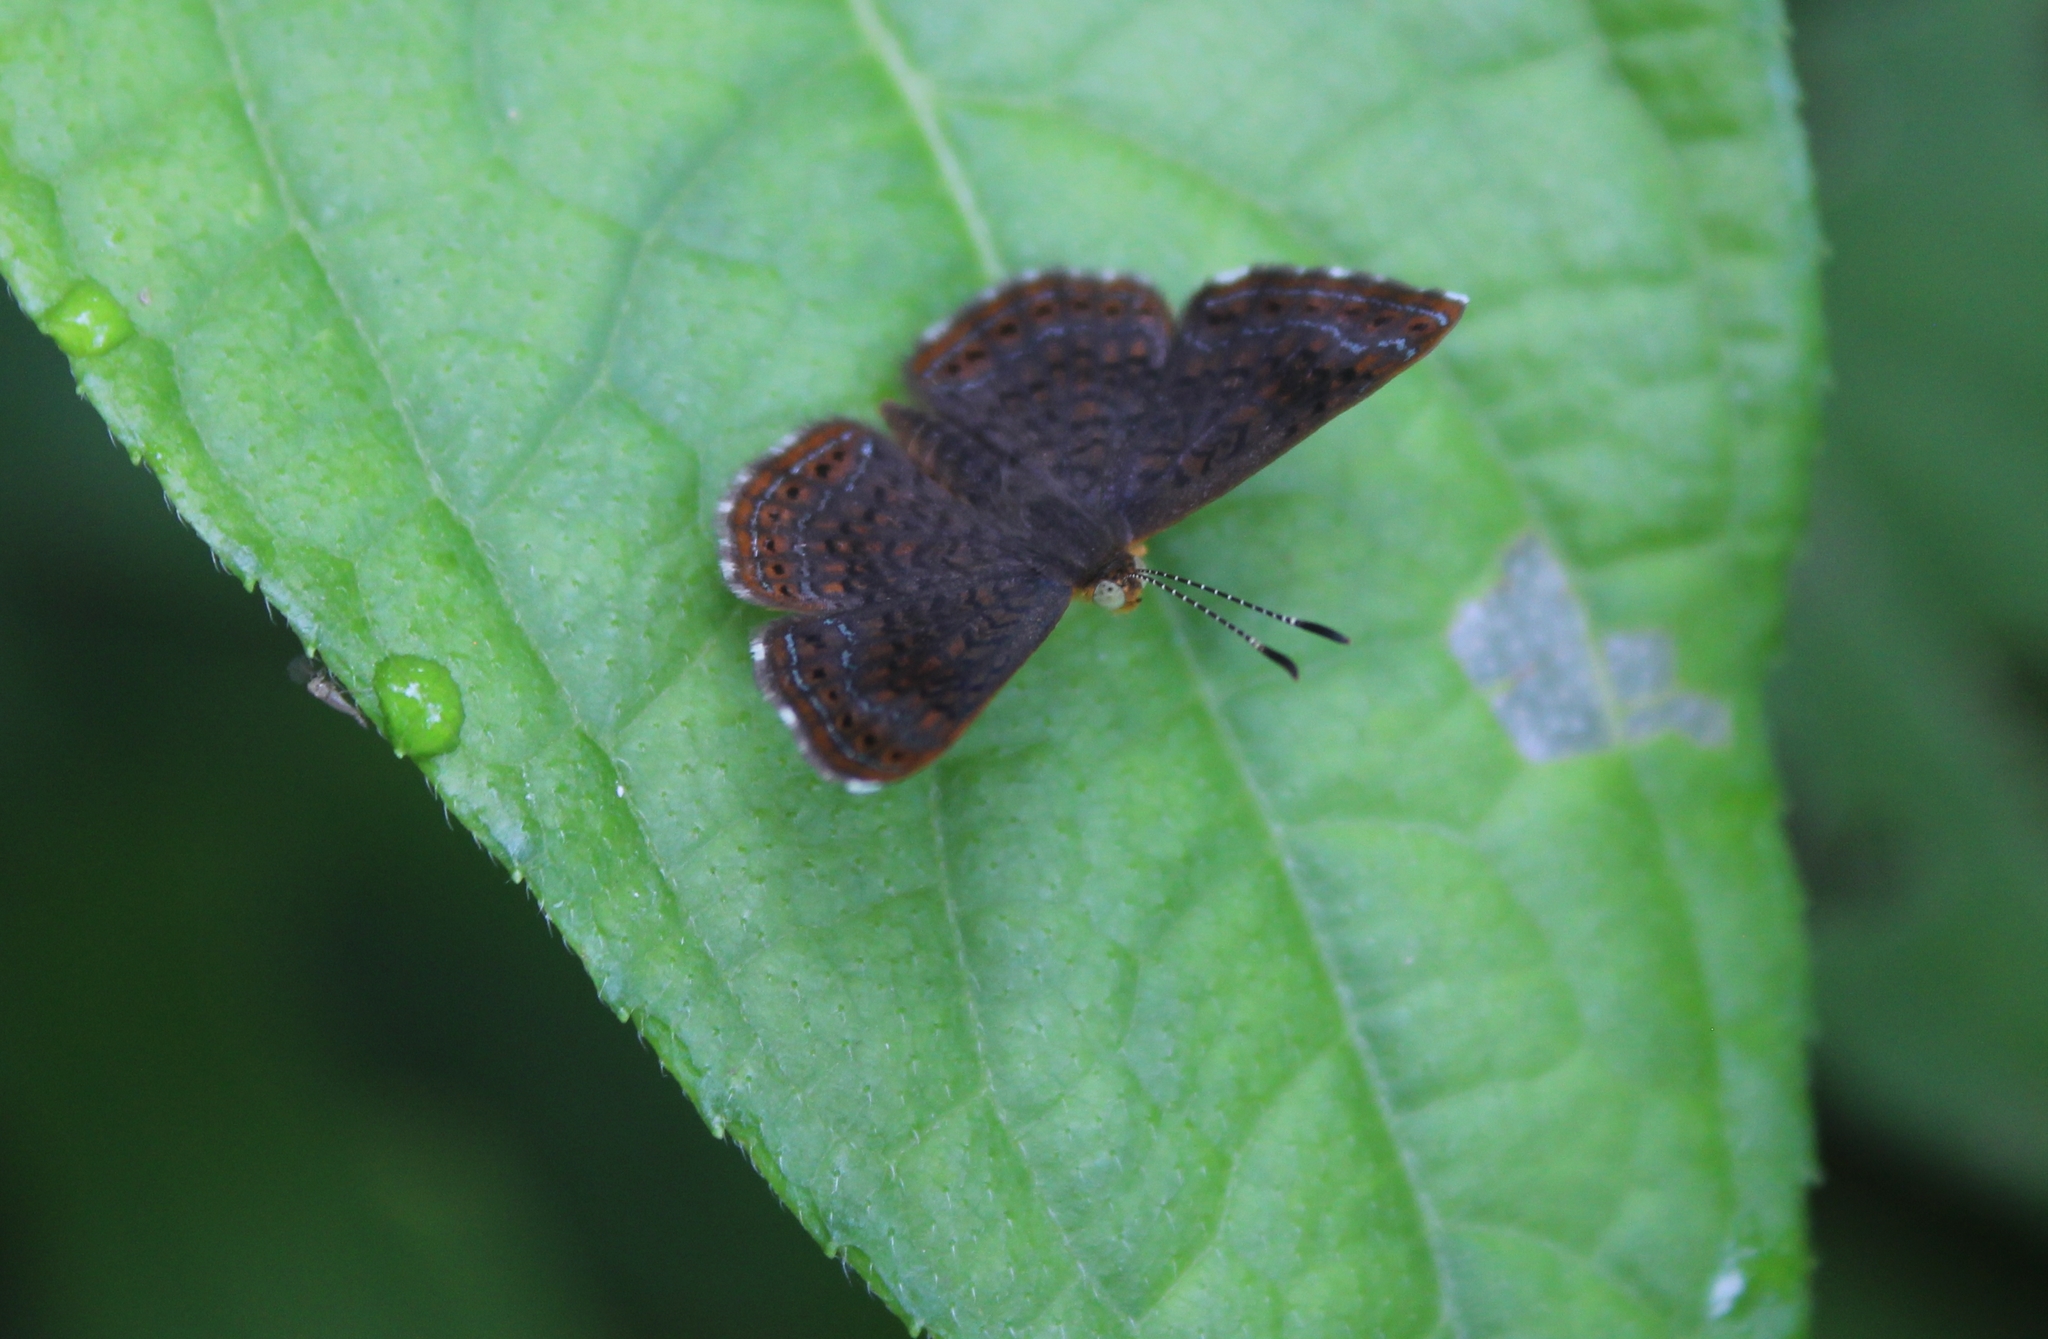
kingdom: Animalia
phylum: Arthropoda
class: Insecta
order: Lepidoptera
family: Riodinidae
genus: Detritivora
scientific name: Detritivora
